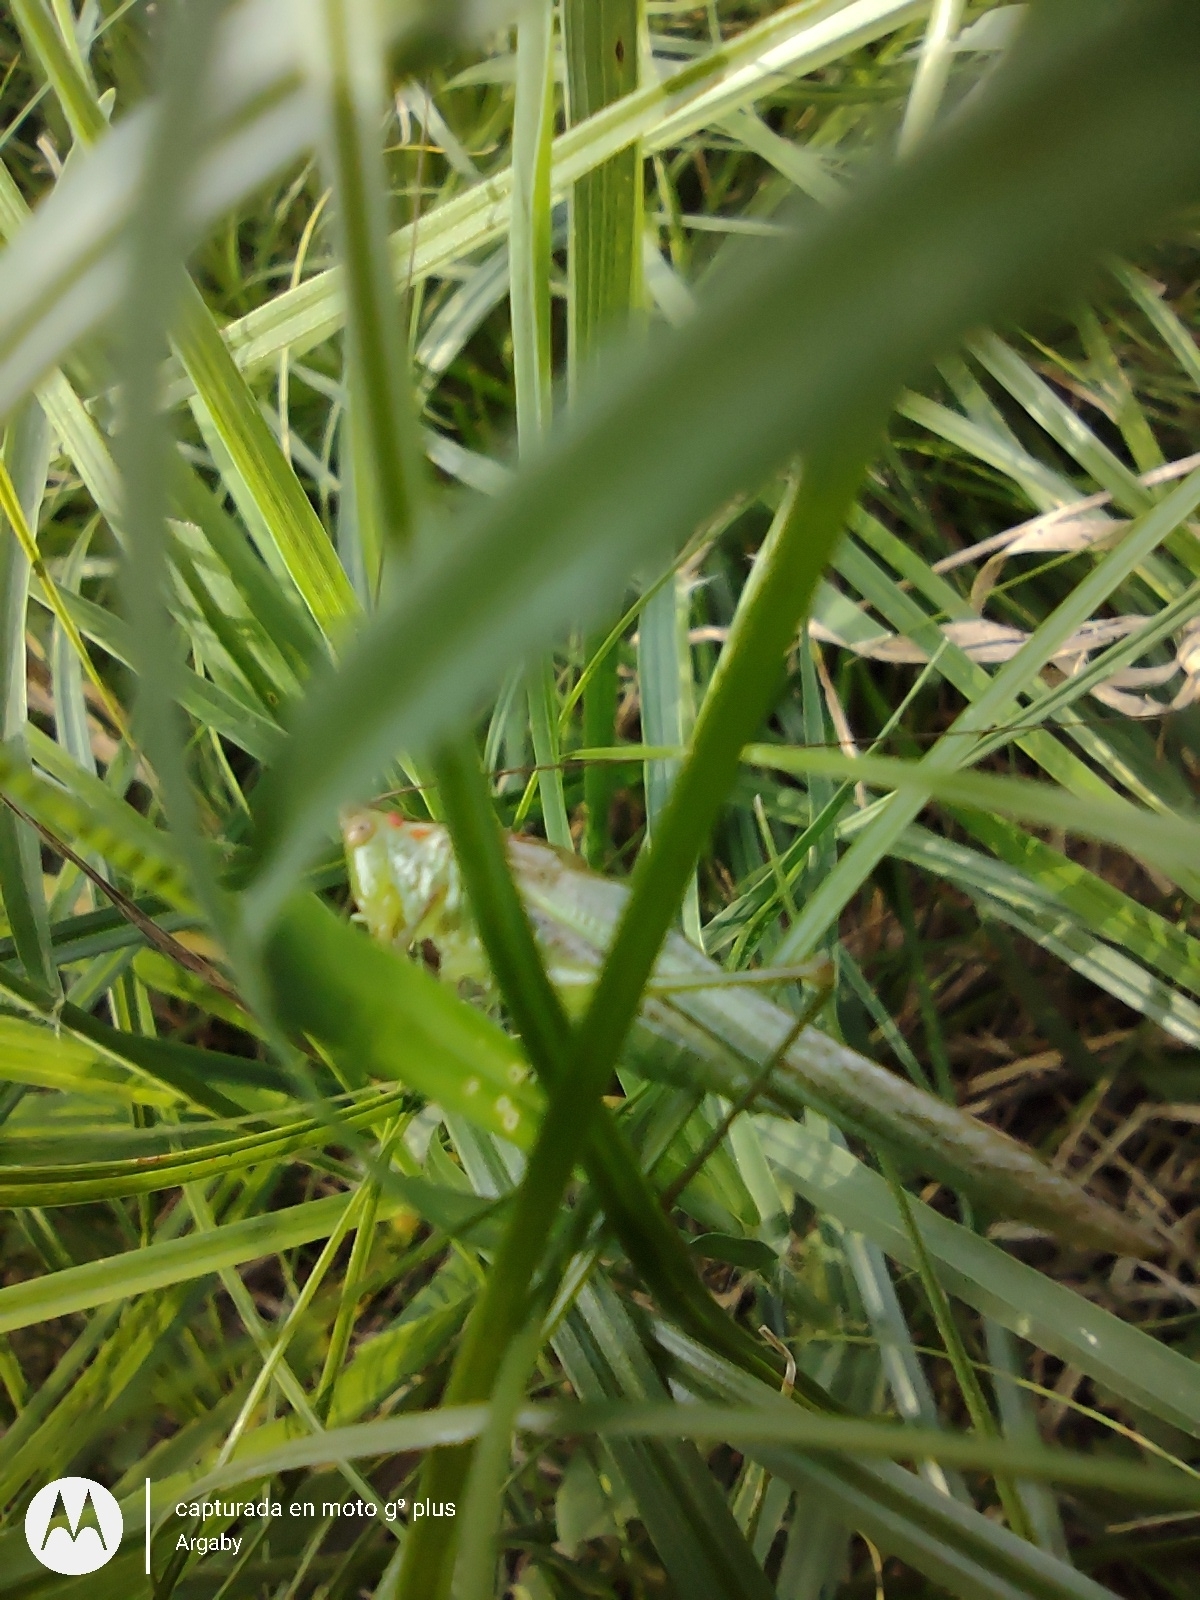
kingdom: Animalia
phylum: Arthropoda
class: Insecta
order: Orthoptera
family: Tettigoniidae
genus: Conocephalus
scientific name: Conocephalus longipes
